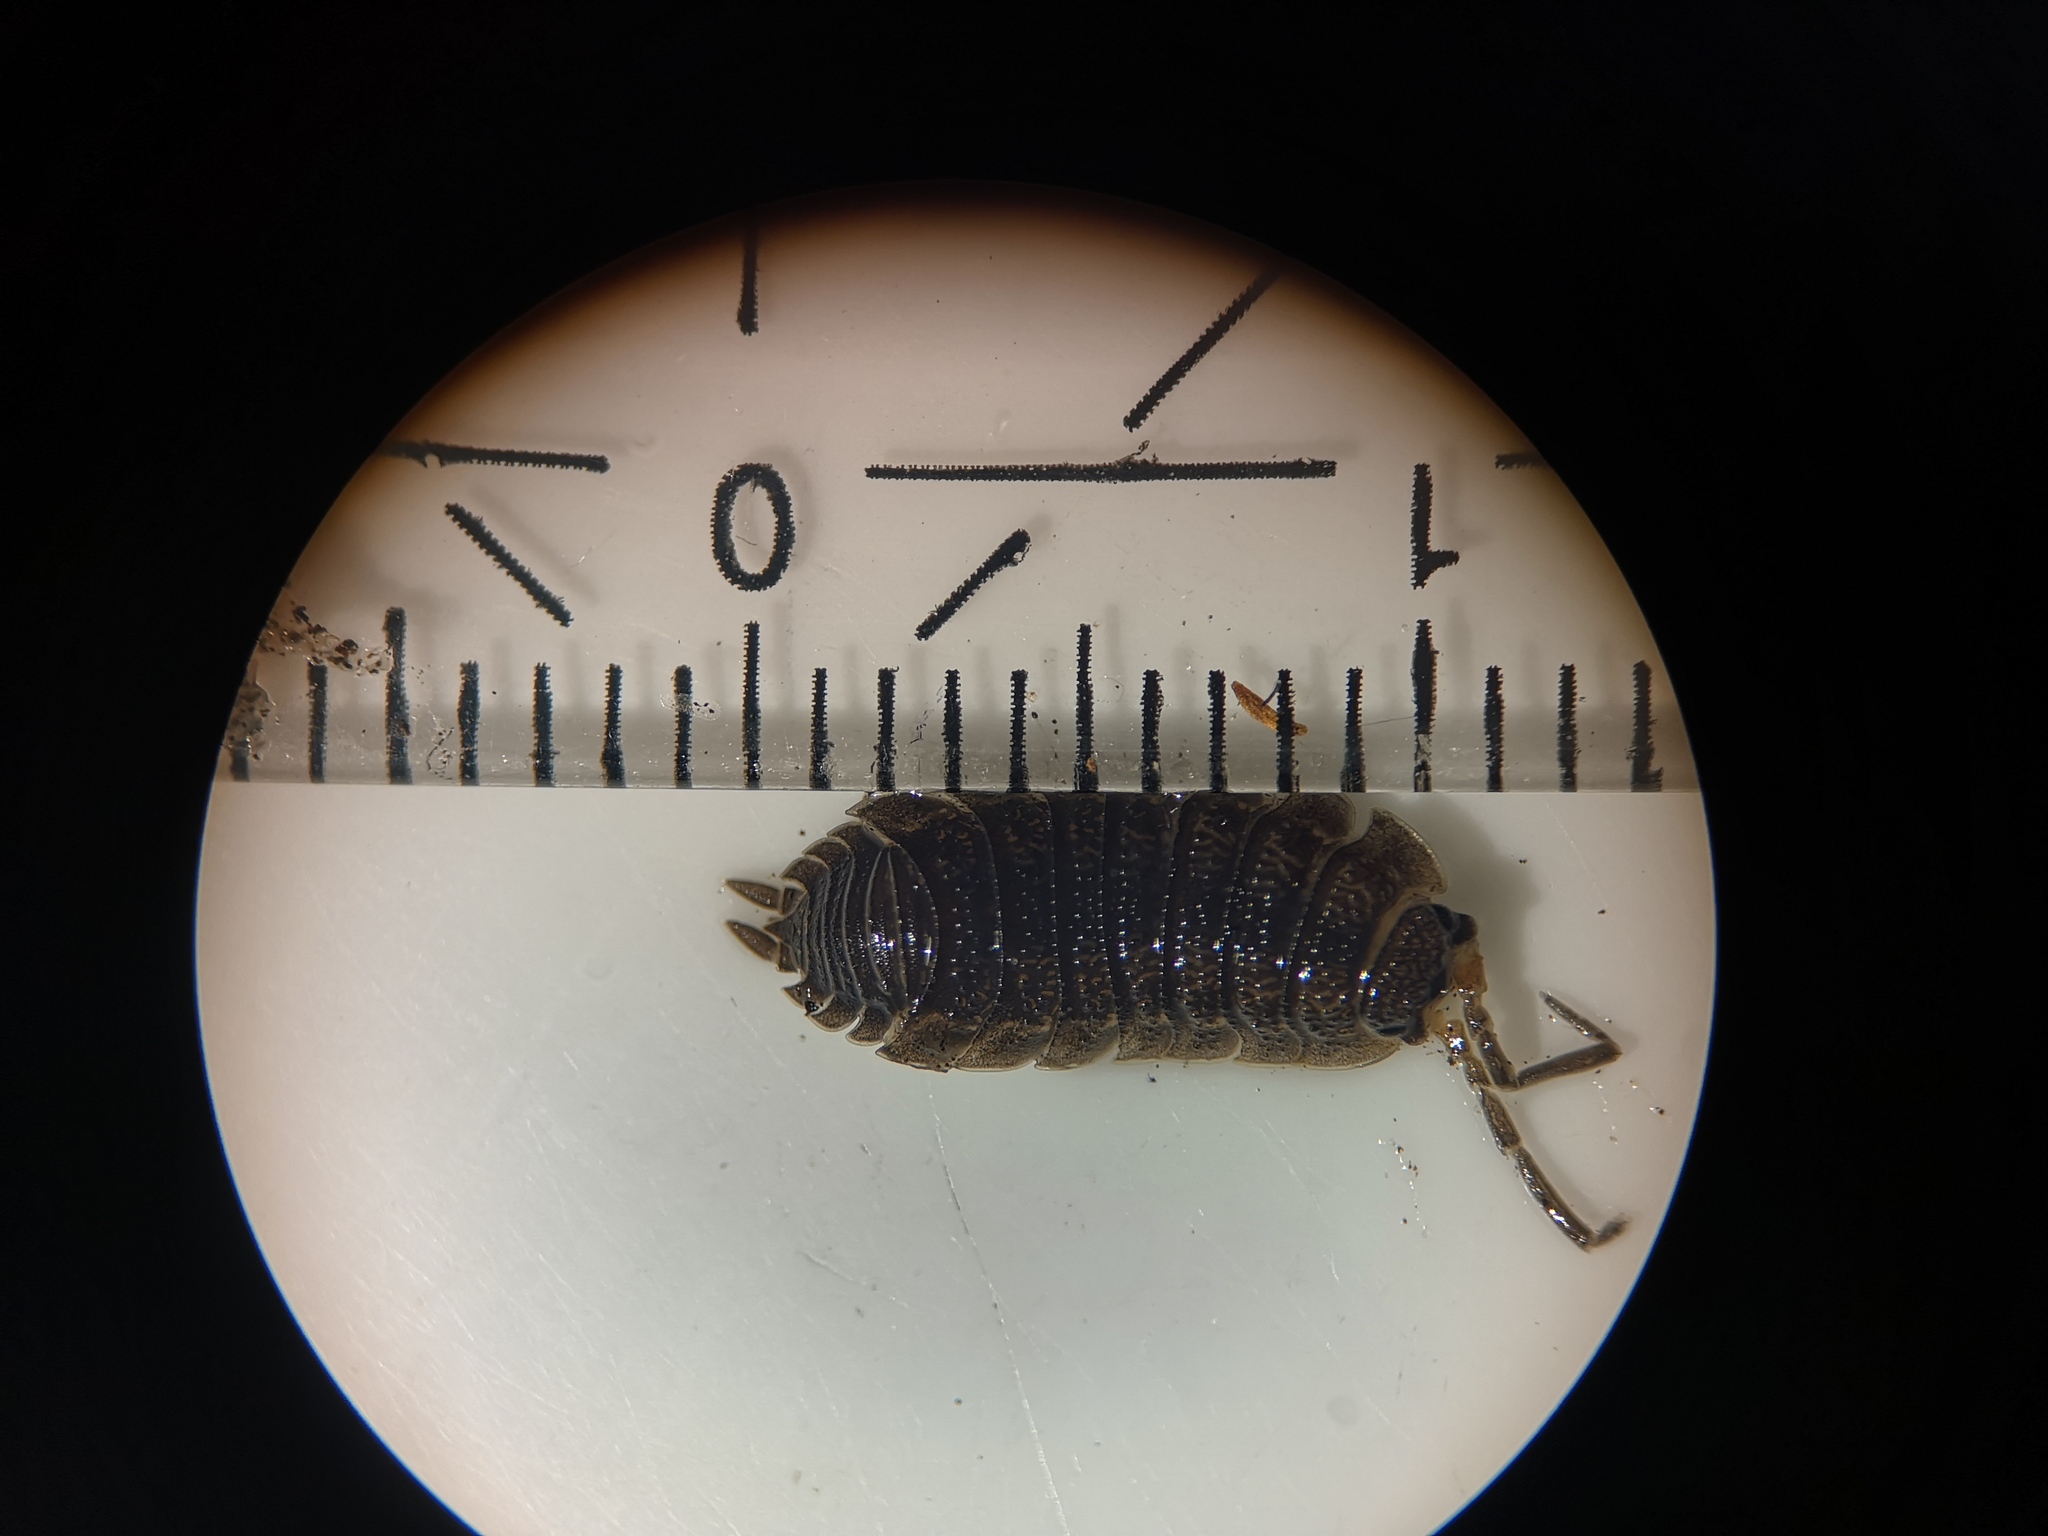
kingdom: Animalia
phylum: Arthropoda
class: Malacostraca
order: Isopoda
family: Porcellionidae
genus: Porcellio
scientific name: Porcellio scaber
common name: Common rough woodlouse
